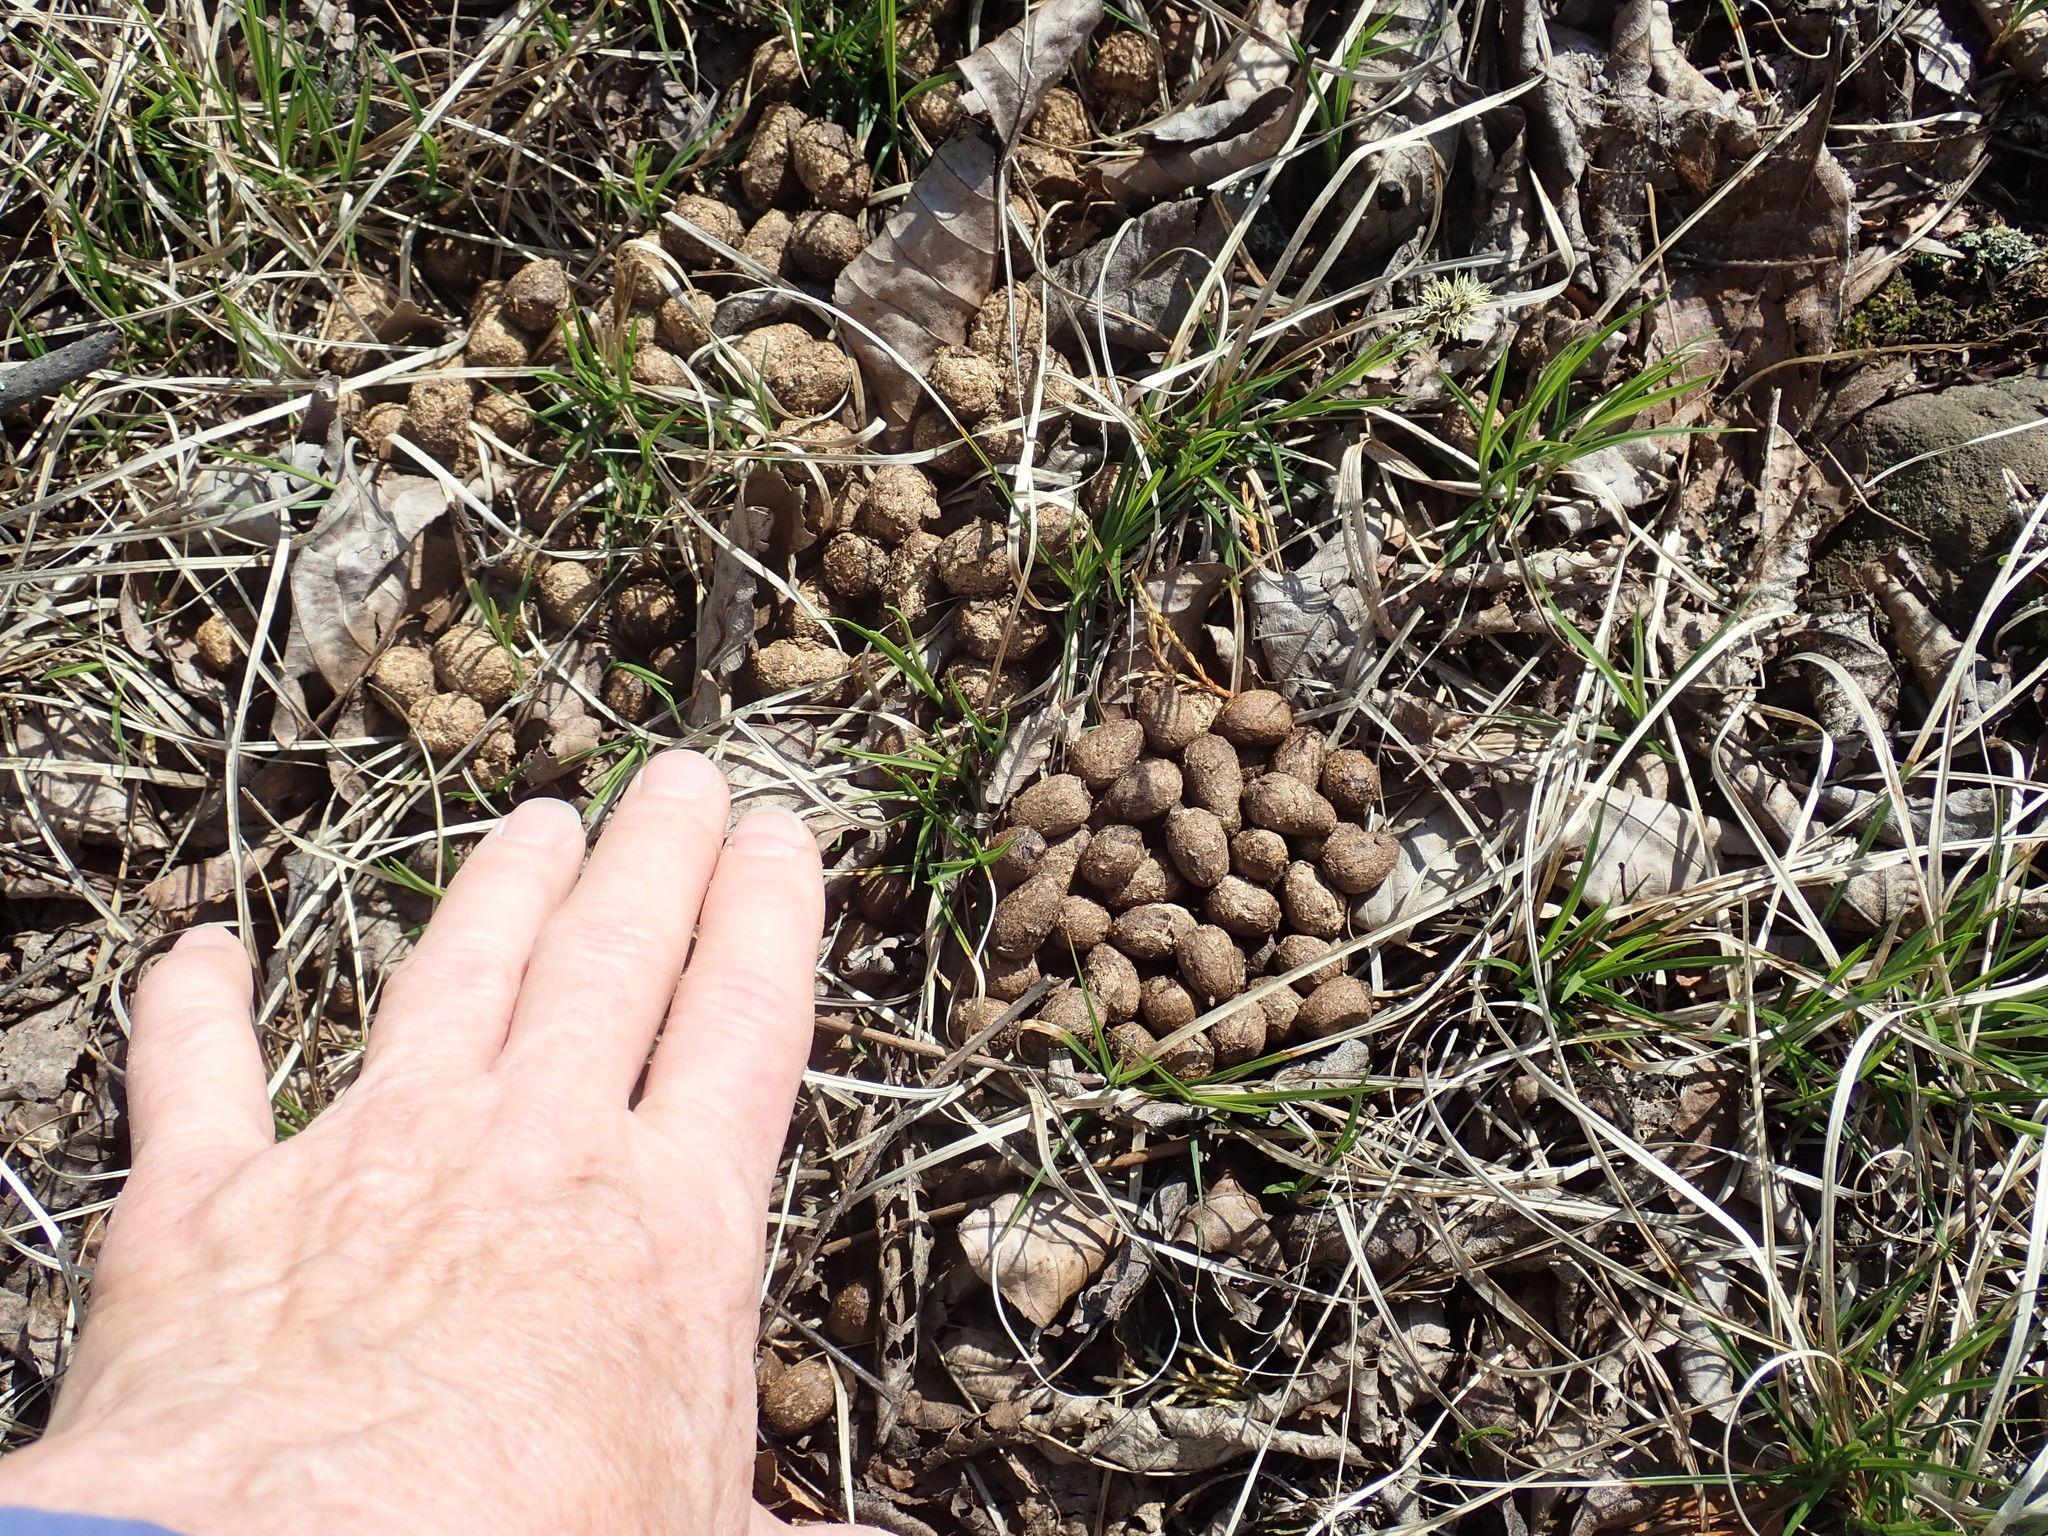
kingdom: Animalia
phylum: Chordata
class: Mammalia
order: Artiodactyla
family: Cervidae
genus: Odocoileus
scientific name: Odocoileus virginianus
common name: White-tailed deer
